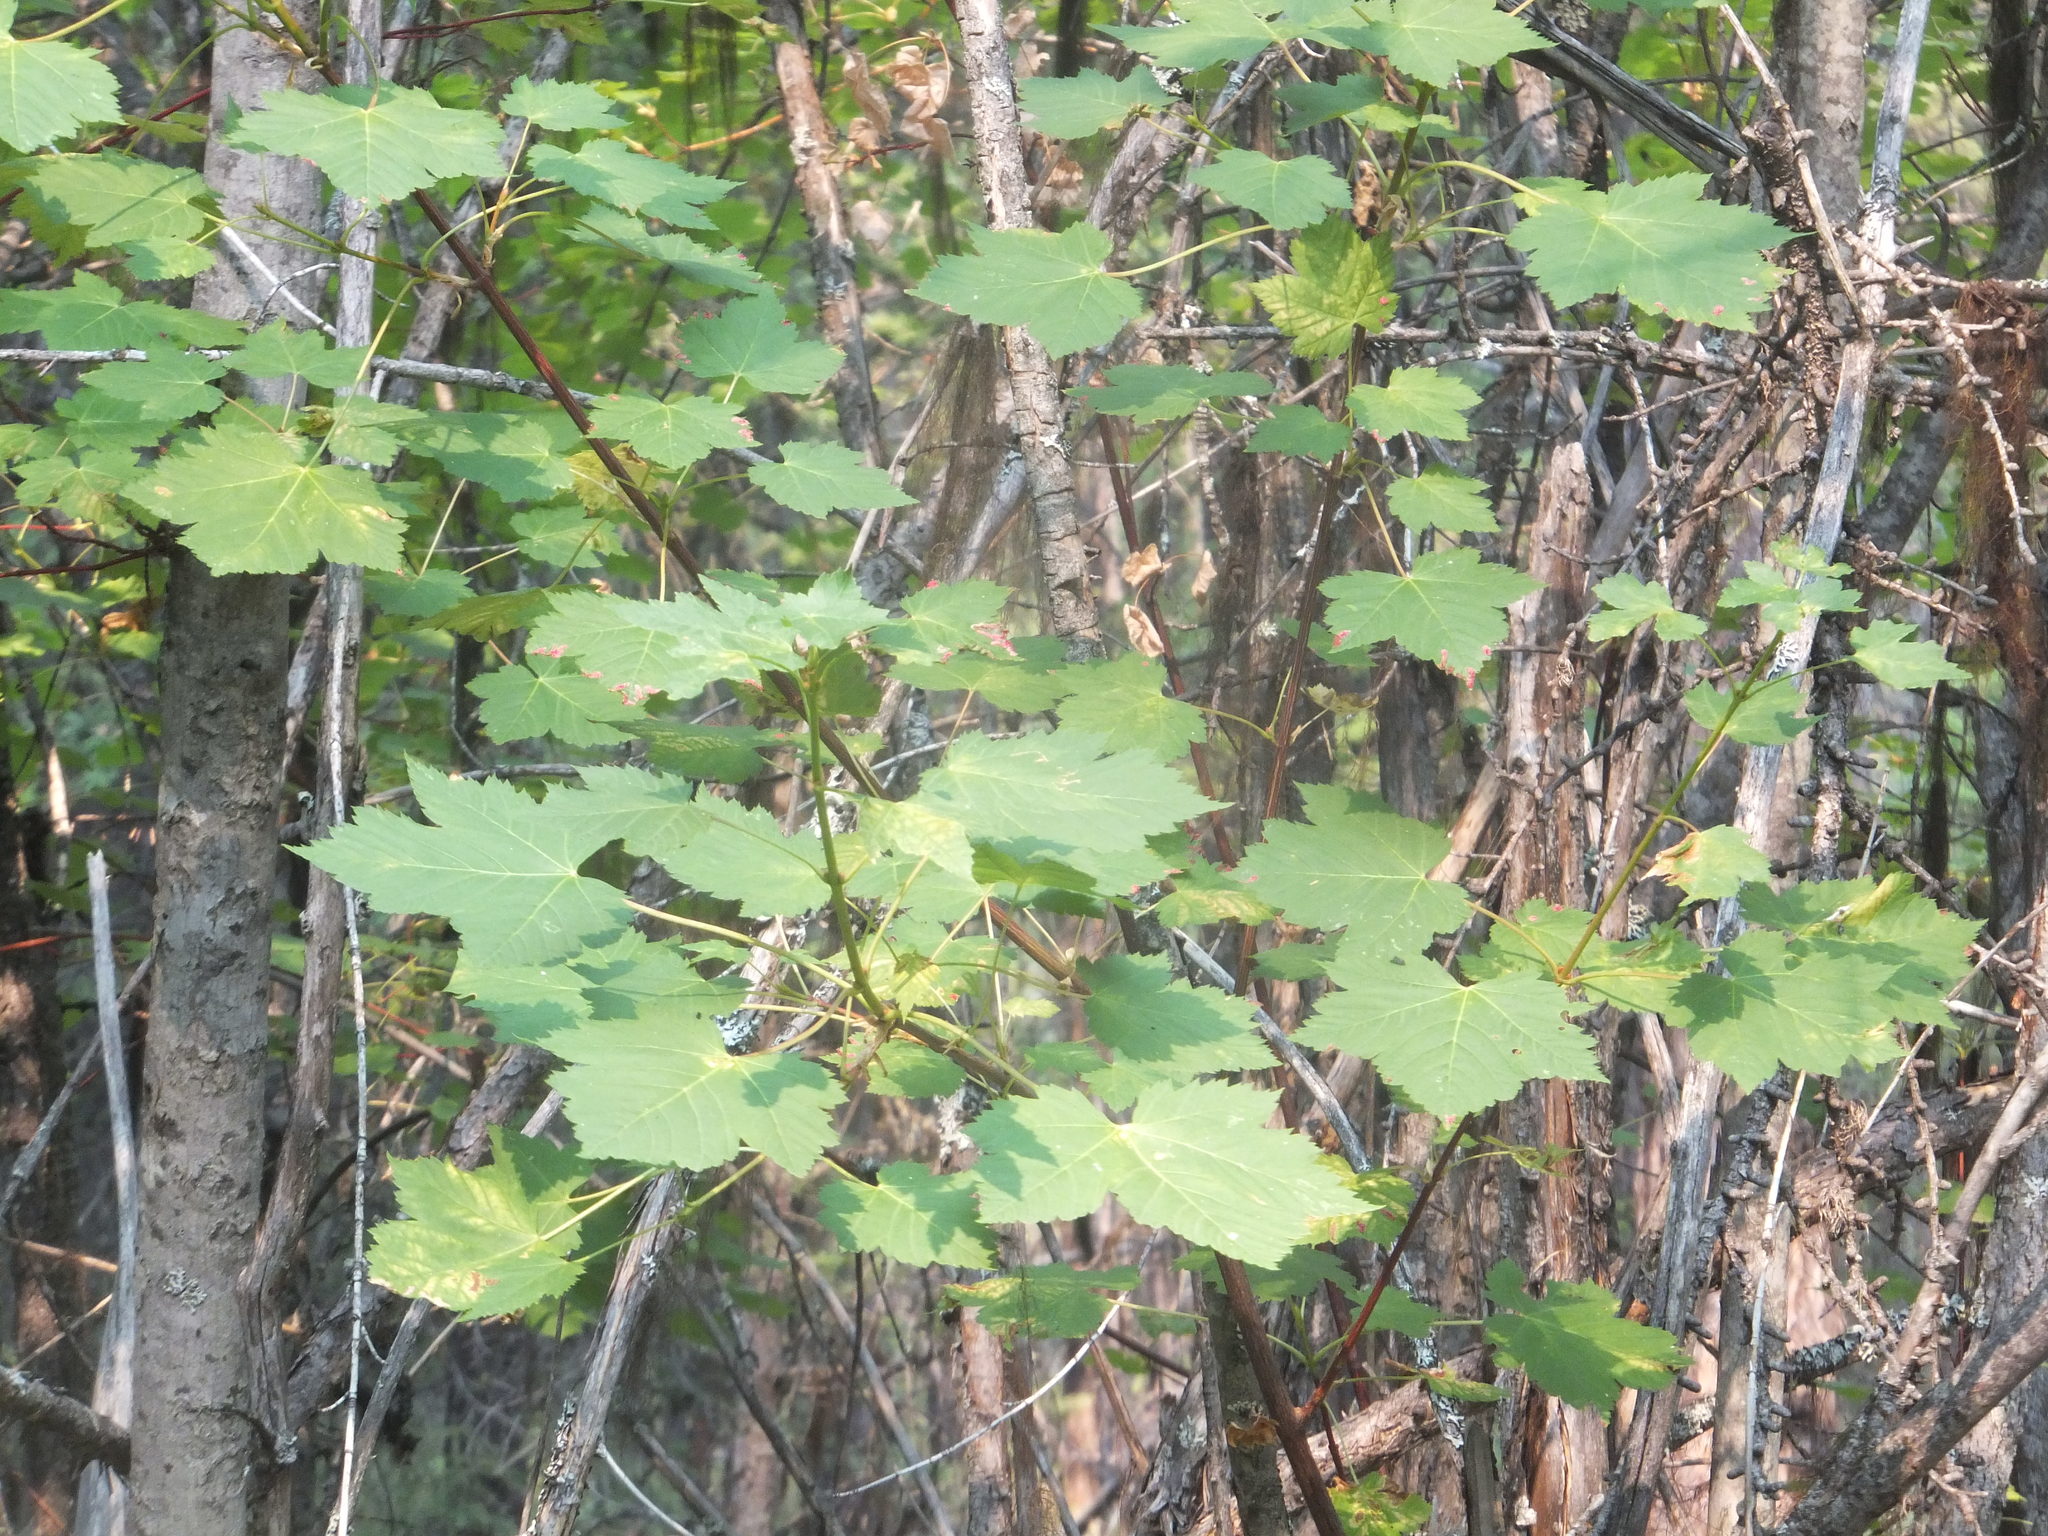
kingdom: Plantae
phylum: Tracheophyta
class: Magnoliopsida
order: Sapindales
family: Sapindaceae
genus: Acer
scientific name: Acer glabrum
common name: Rocky mountain maple
